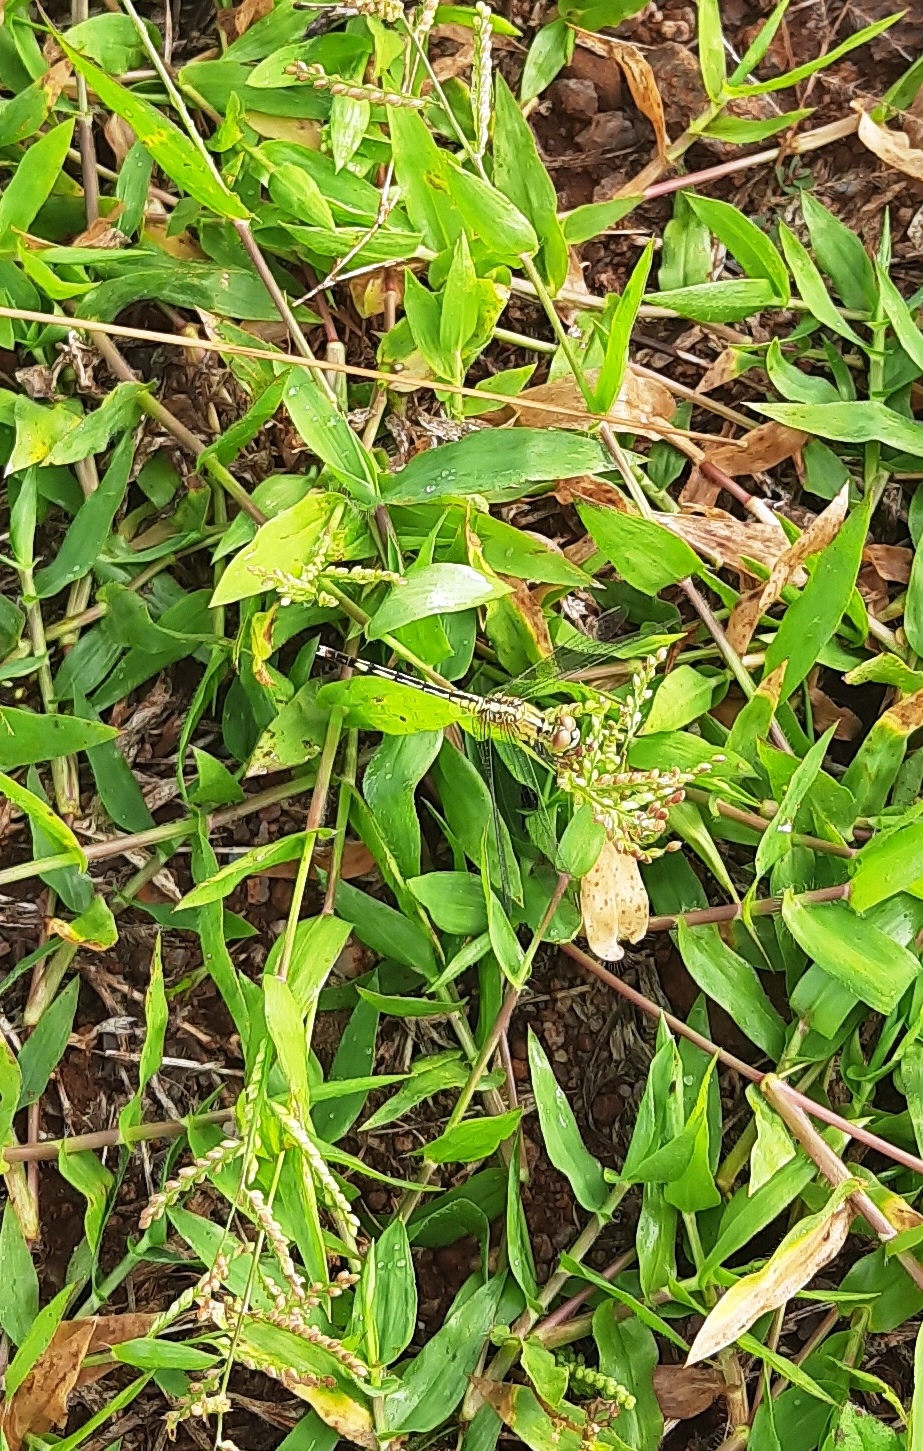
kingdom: Animalia
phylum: Arthropoda
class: Insecta
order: Odonata
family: Libellulidae
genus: Diplacodes
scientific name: Diplacodes trivialis
